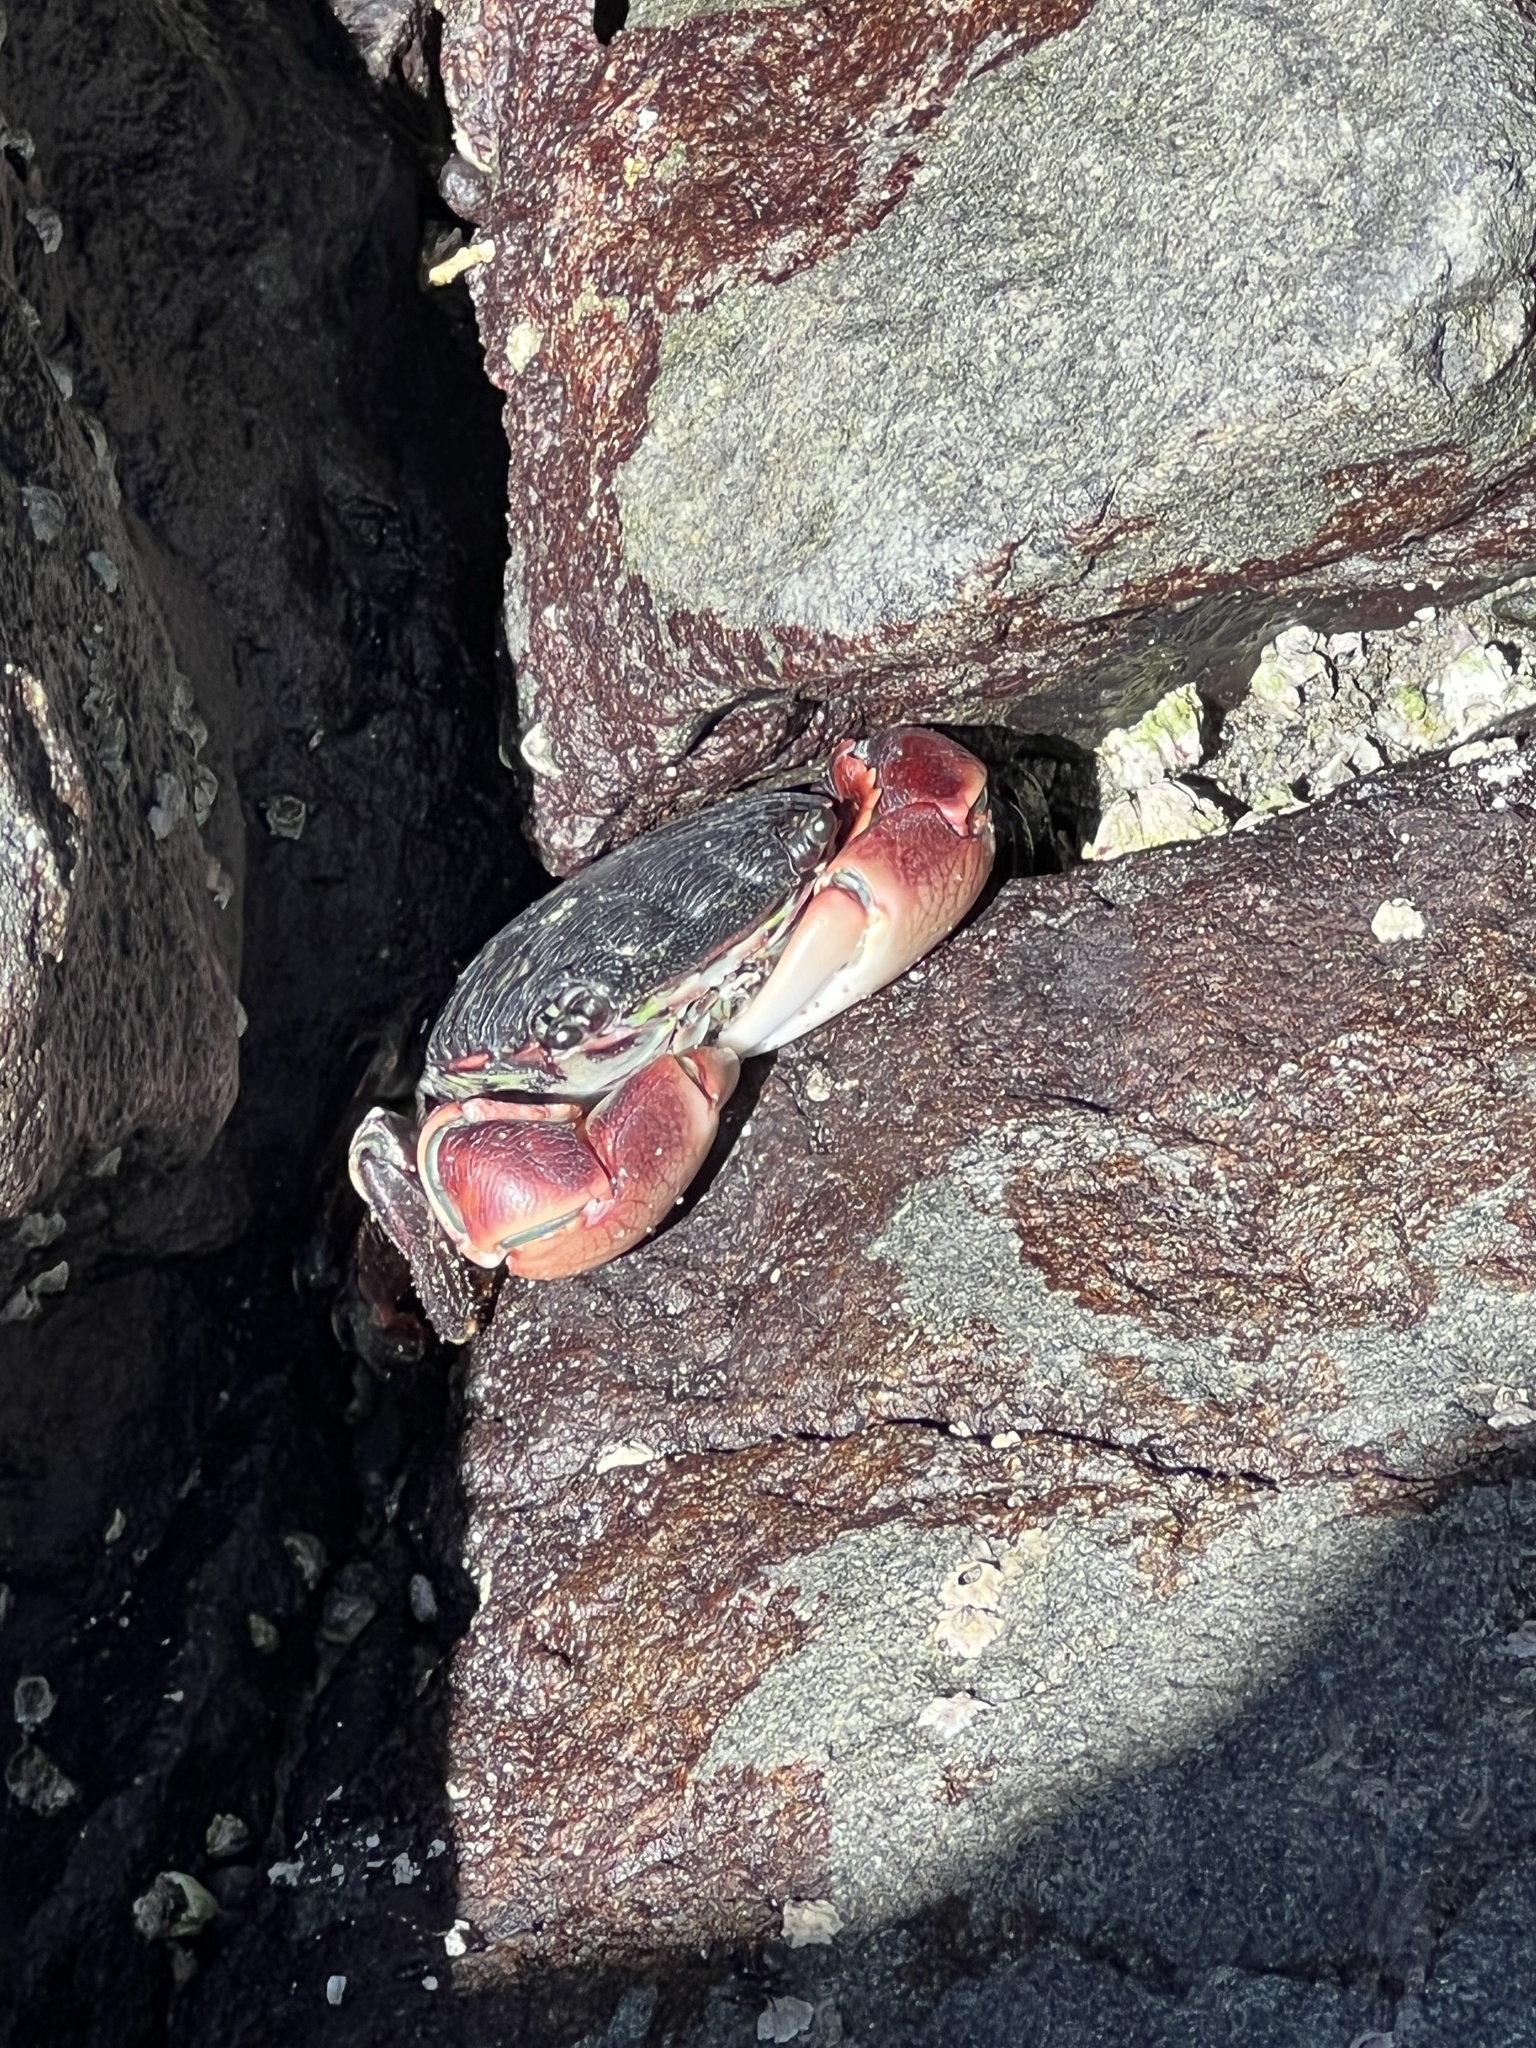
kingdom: Animalia
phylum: Arthropoda
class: Malacostraca
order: Decapoda
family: Grapsidae
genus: Pachygrapsus
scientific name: Pachygrapsus crassipes
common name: Striped shore crab
